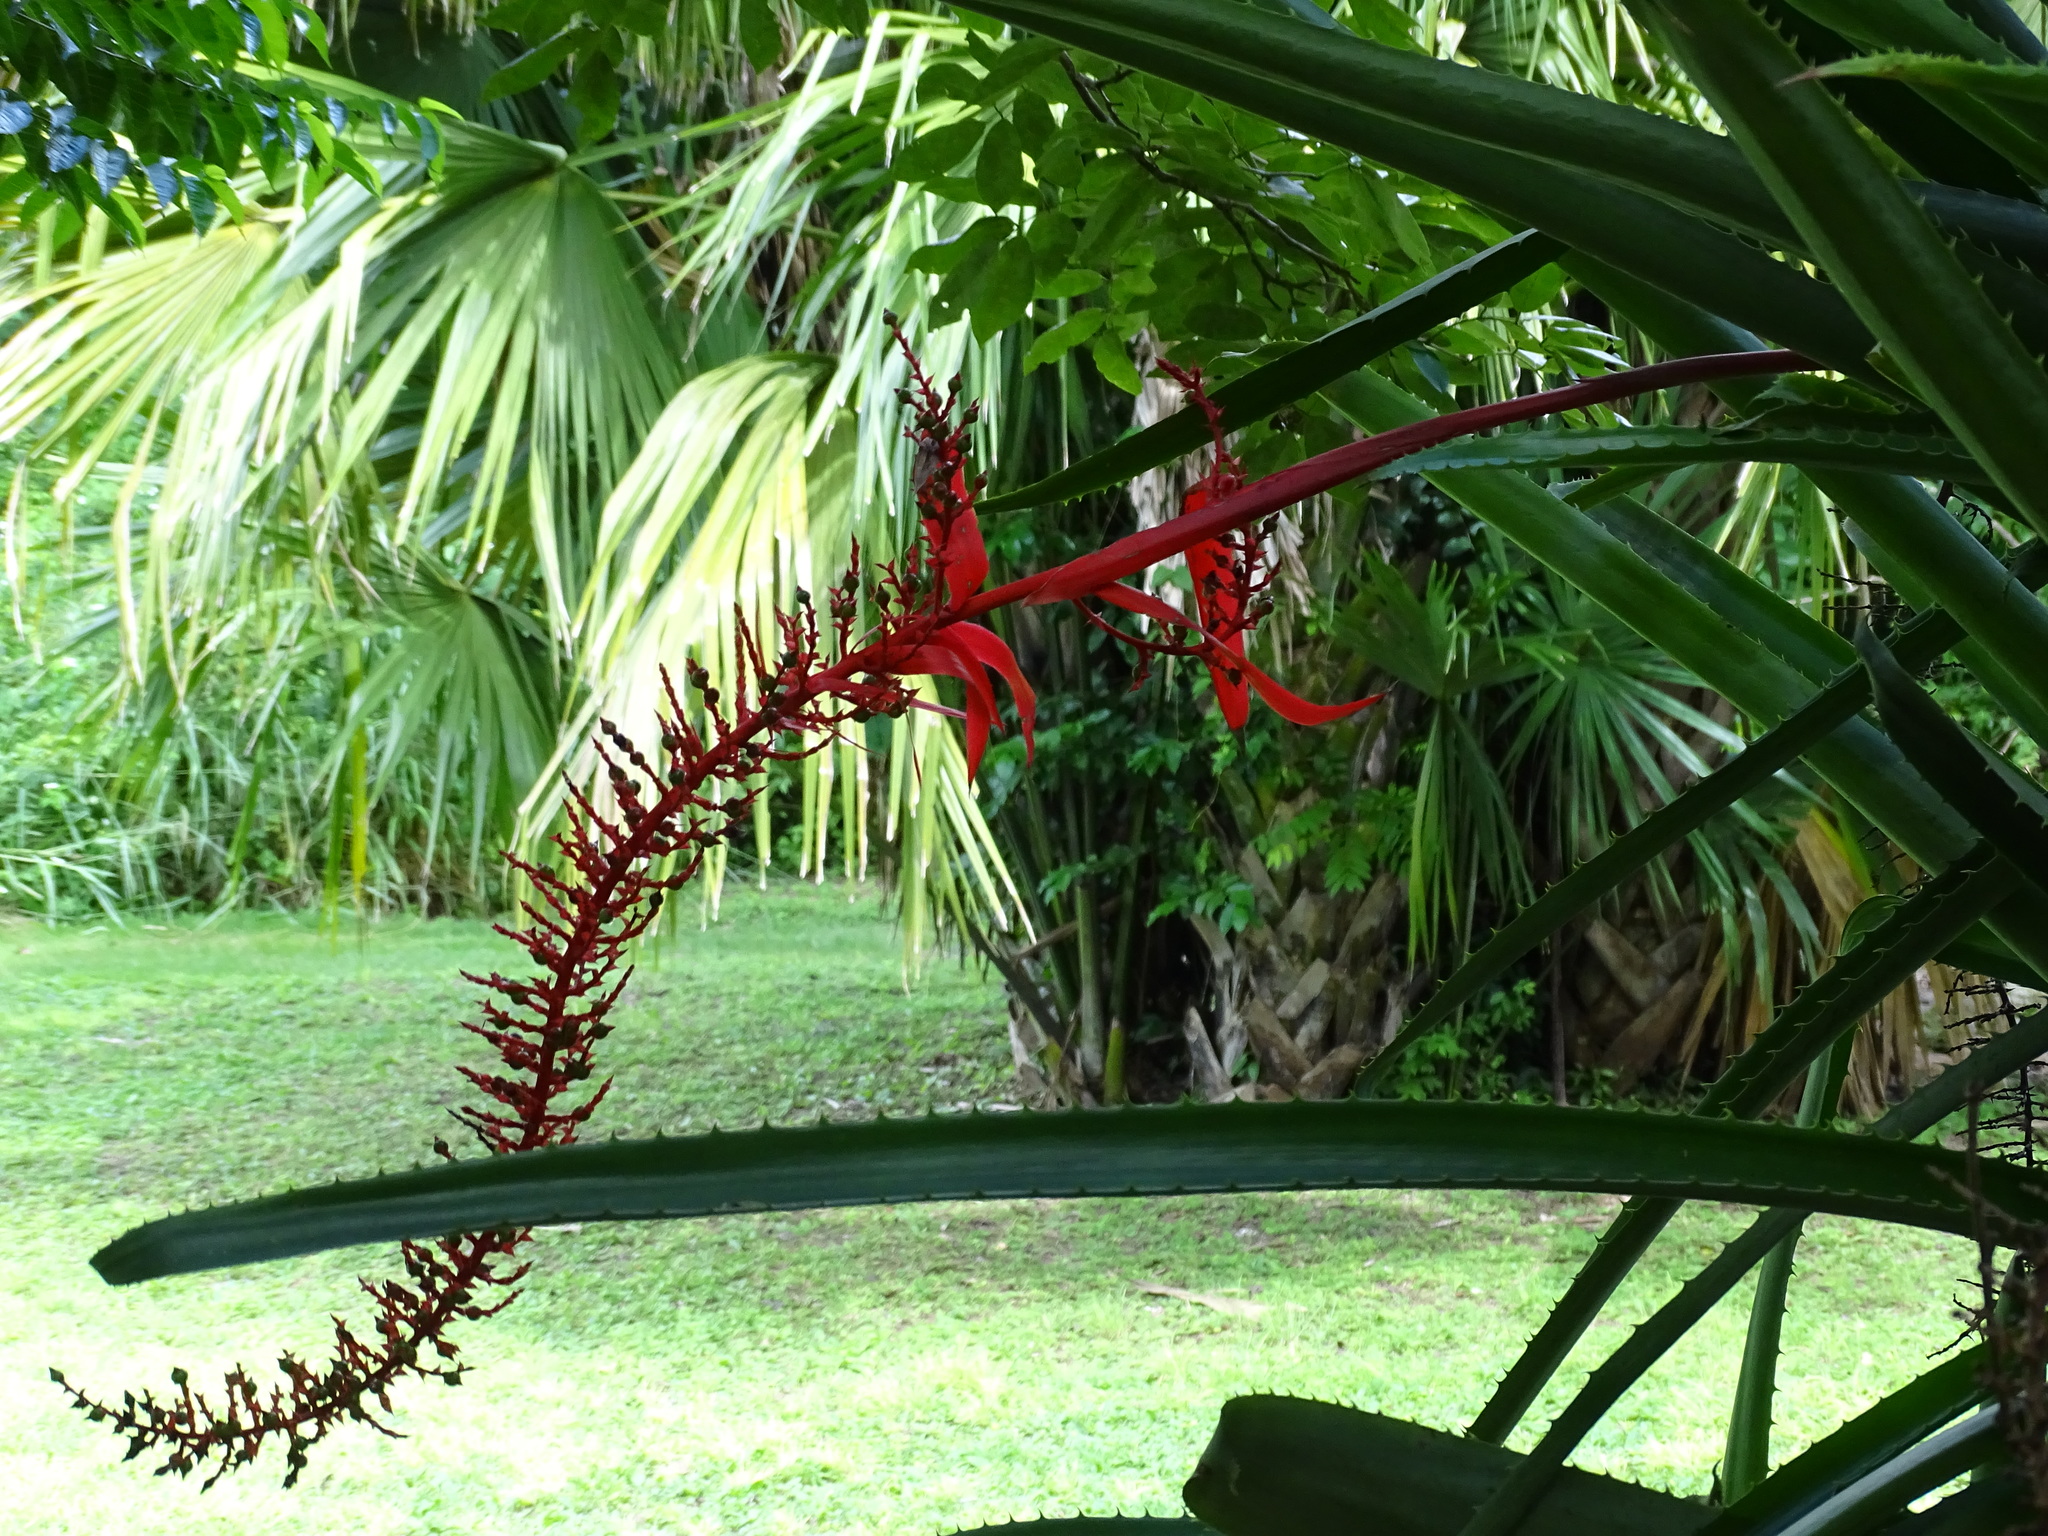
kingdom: Plantae
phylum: Tracheophyta
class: Liliopsida
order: Poales
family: Bromeliaceae
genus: Aechmea
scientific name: Aechmea bracteata
